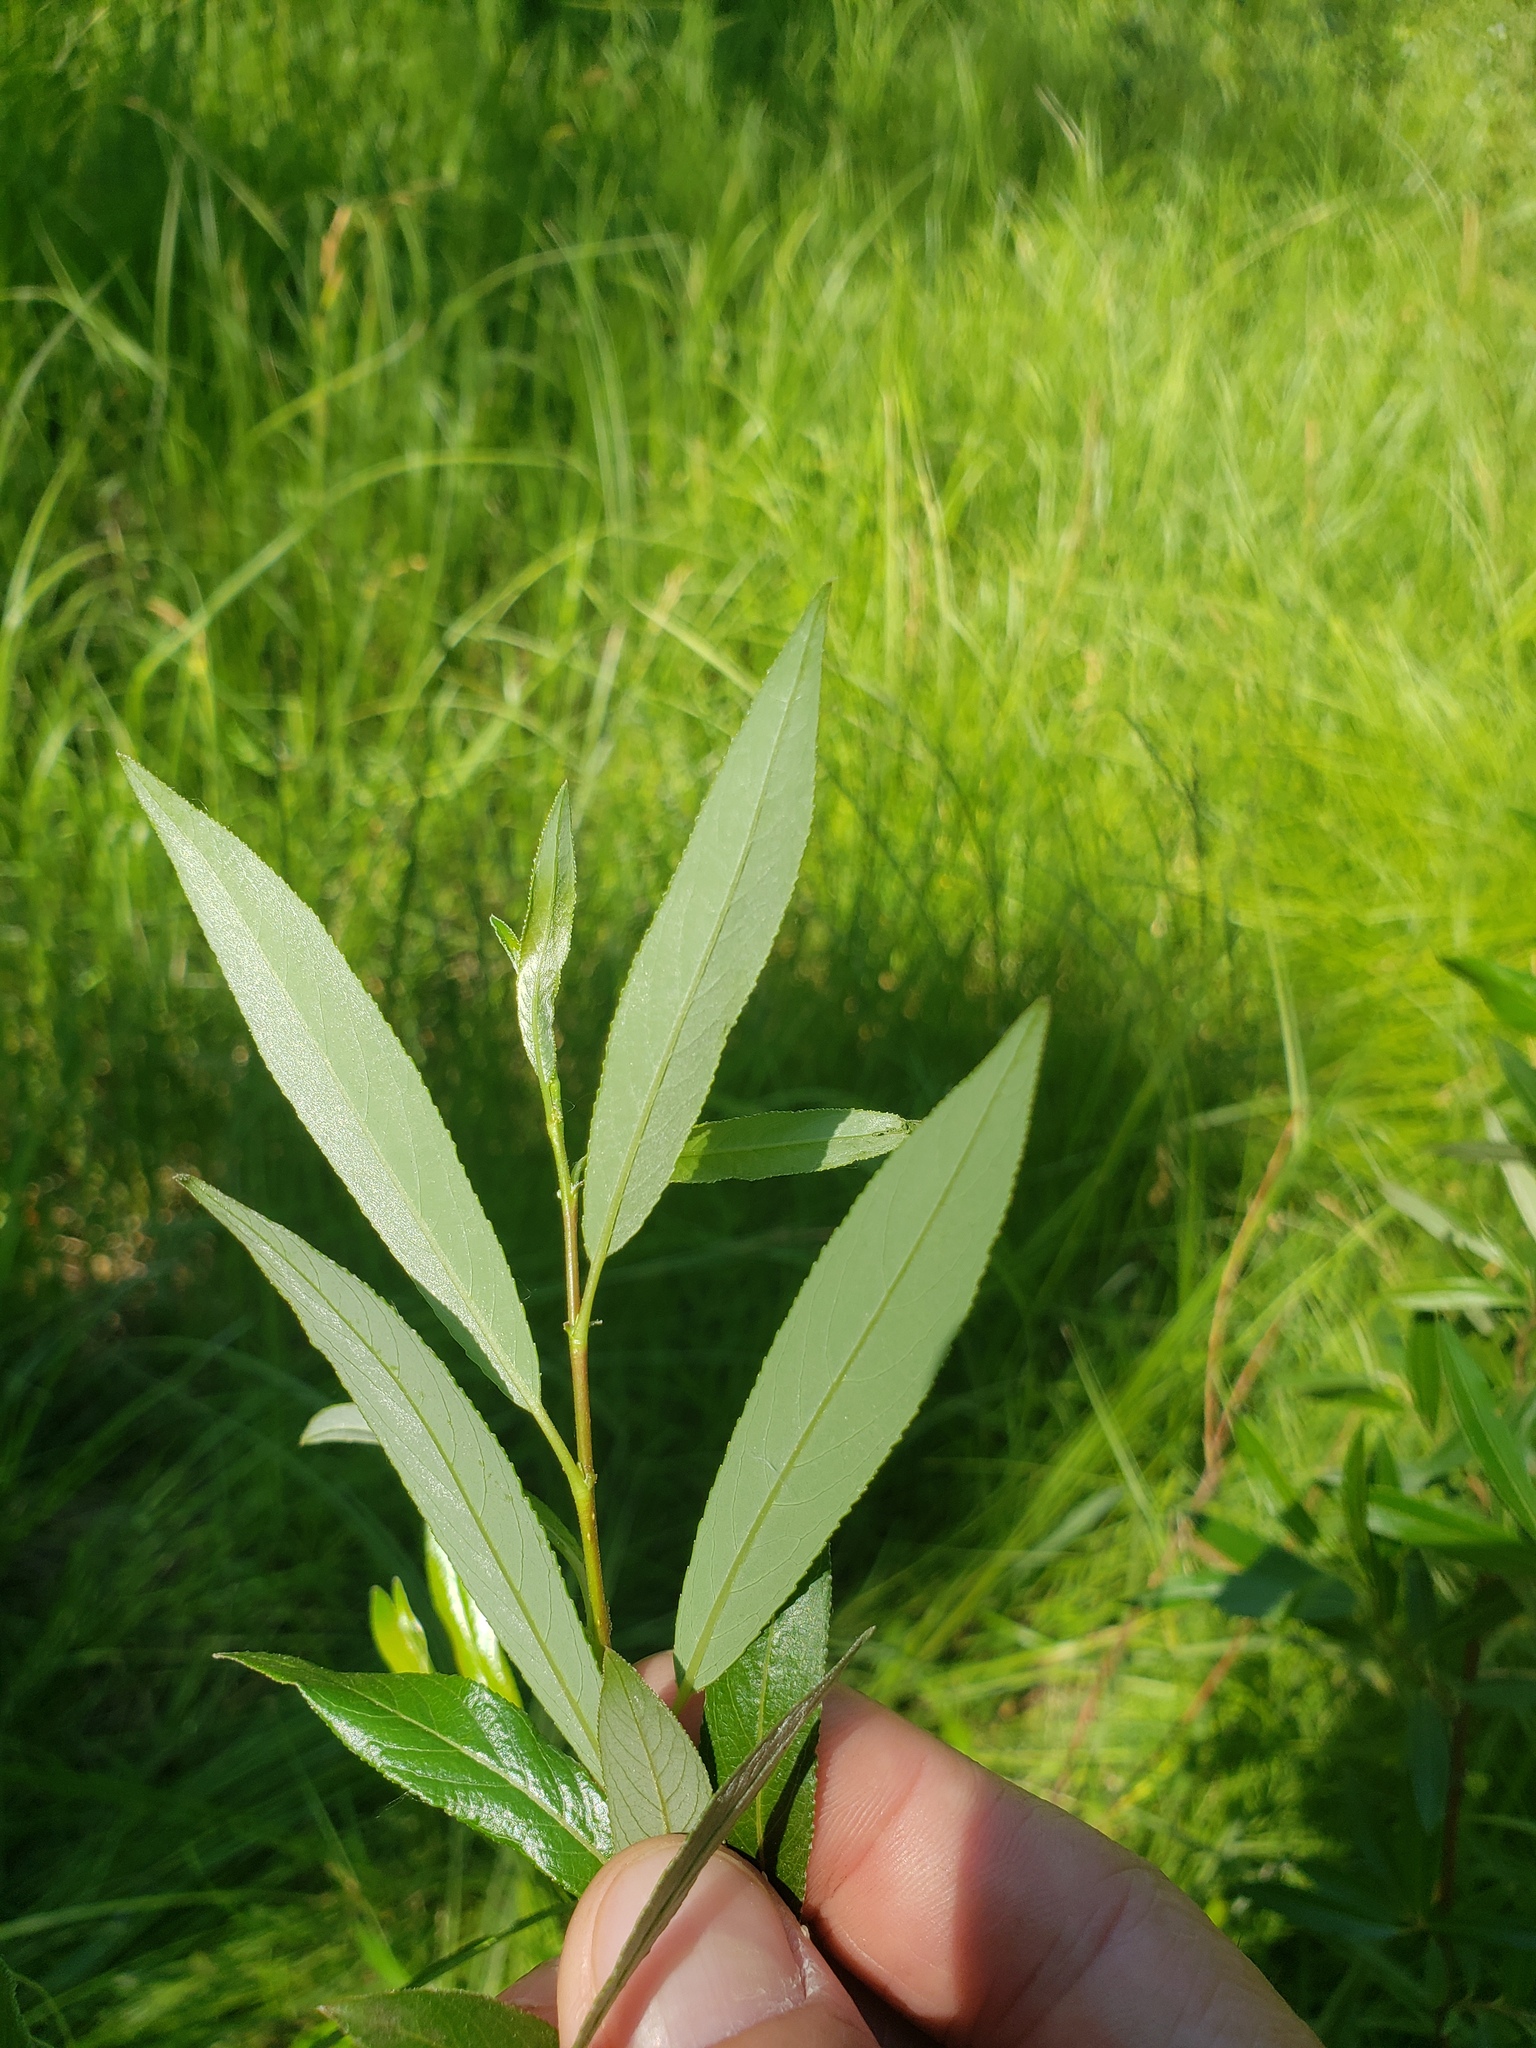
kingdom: Plantae
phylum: Tracheophyta
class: Magnoliopsida
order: Malpighiales
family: Salicaceae
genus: Salix
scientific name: Salix arbusculoides
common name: Little-tree willow
